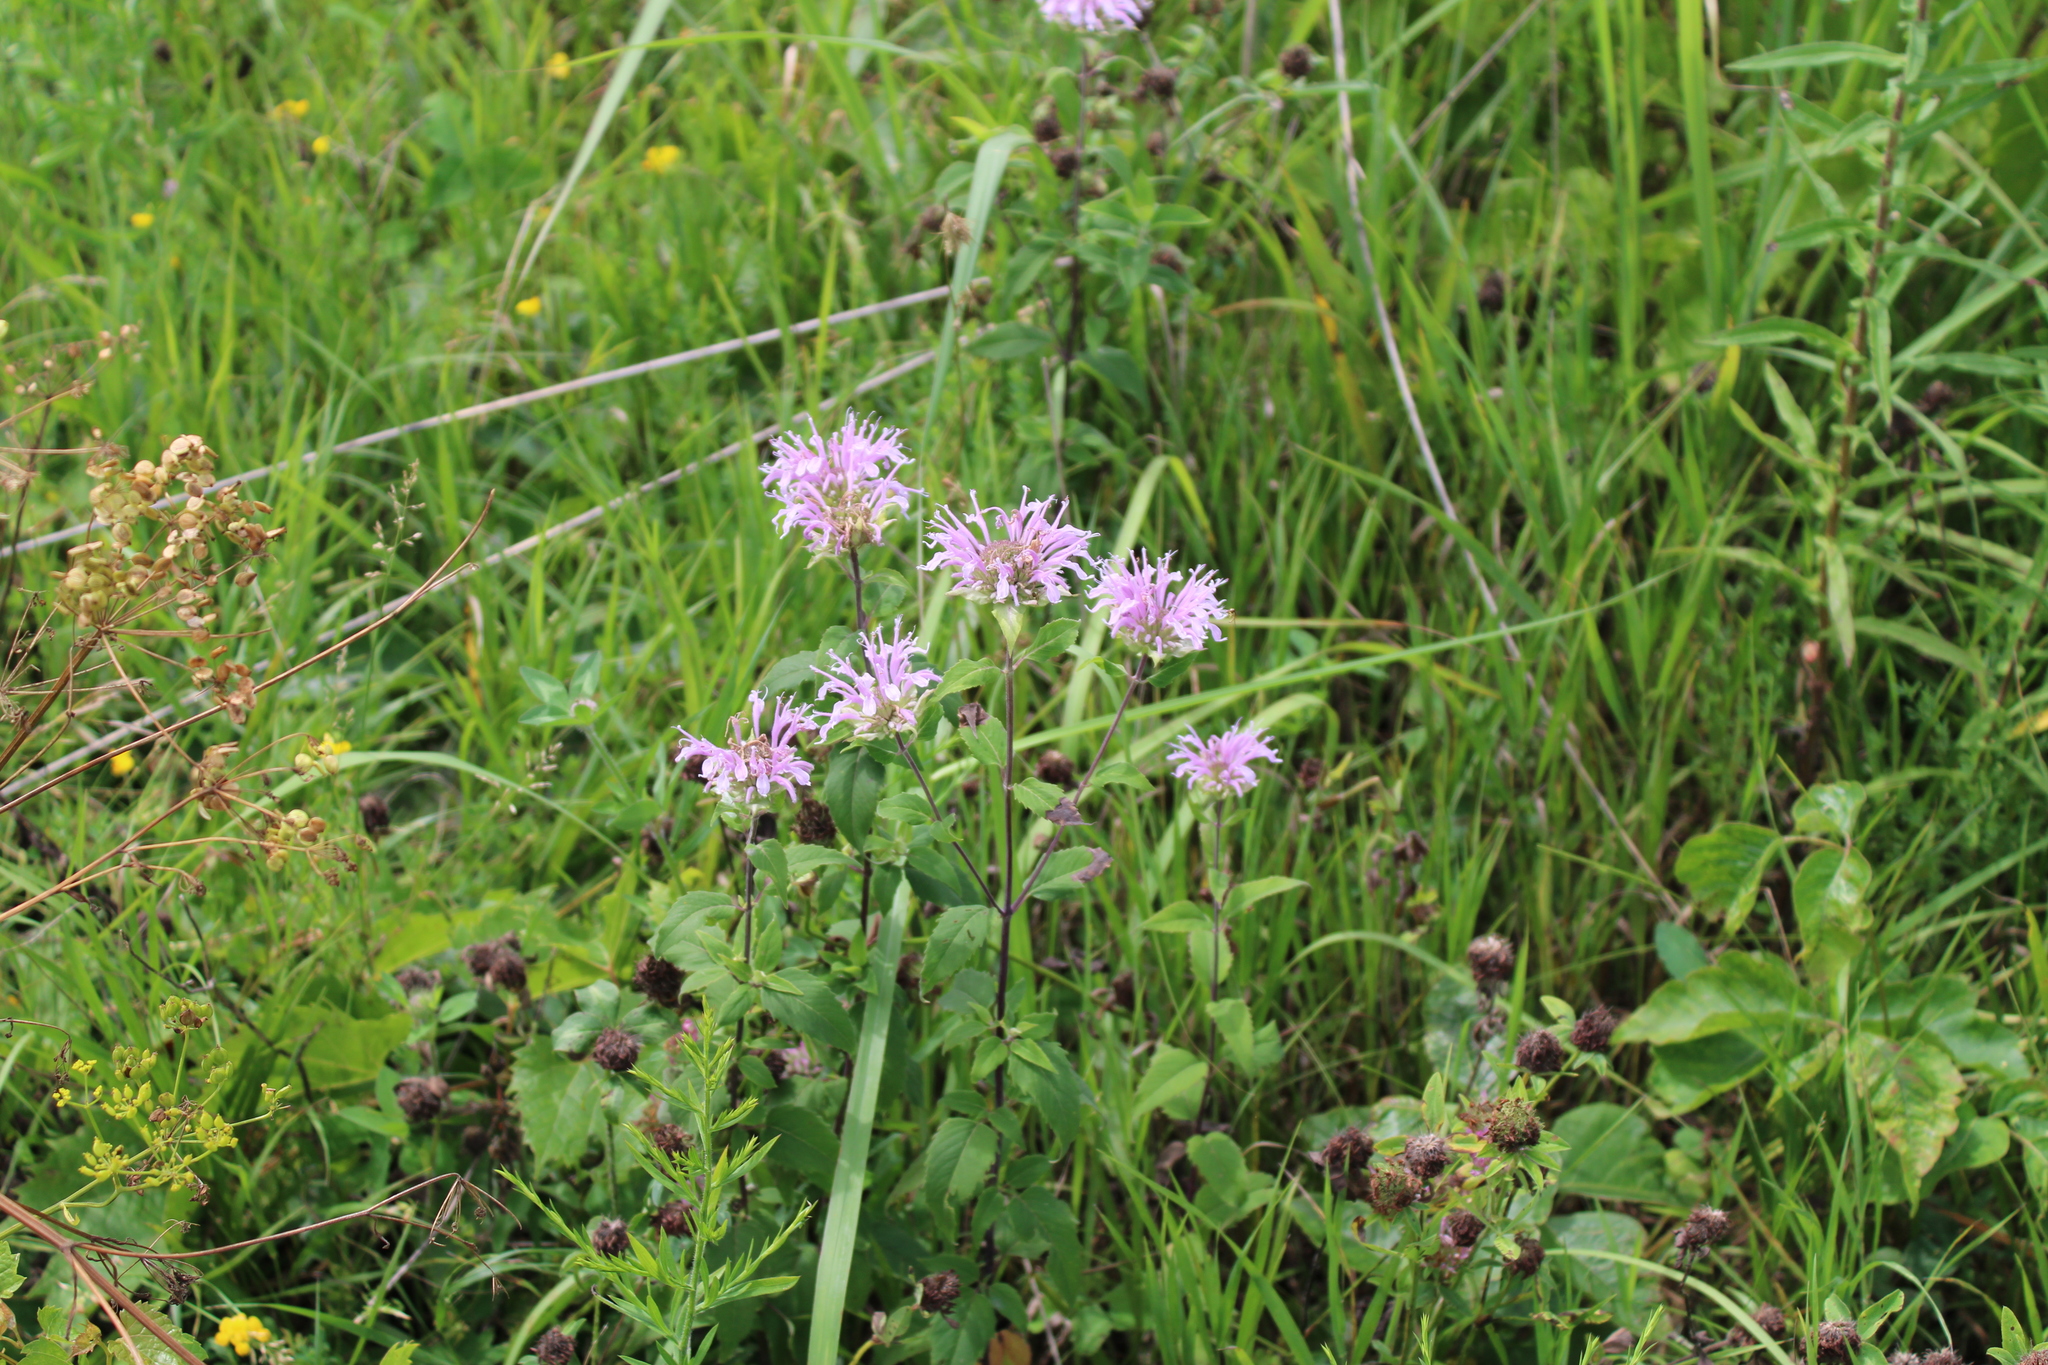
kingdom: Plantae
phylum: Tracheophyta
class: Magnoliopsida
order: Lamiales
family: Lamiaceae
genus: Monarda
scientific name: Monarda fistulosa
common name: Purple beebalm
